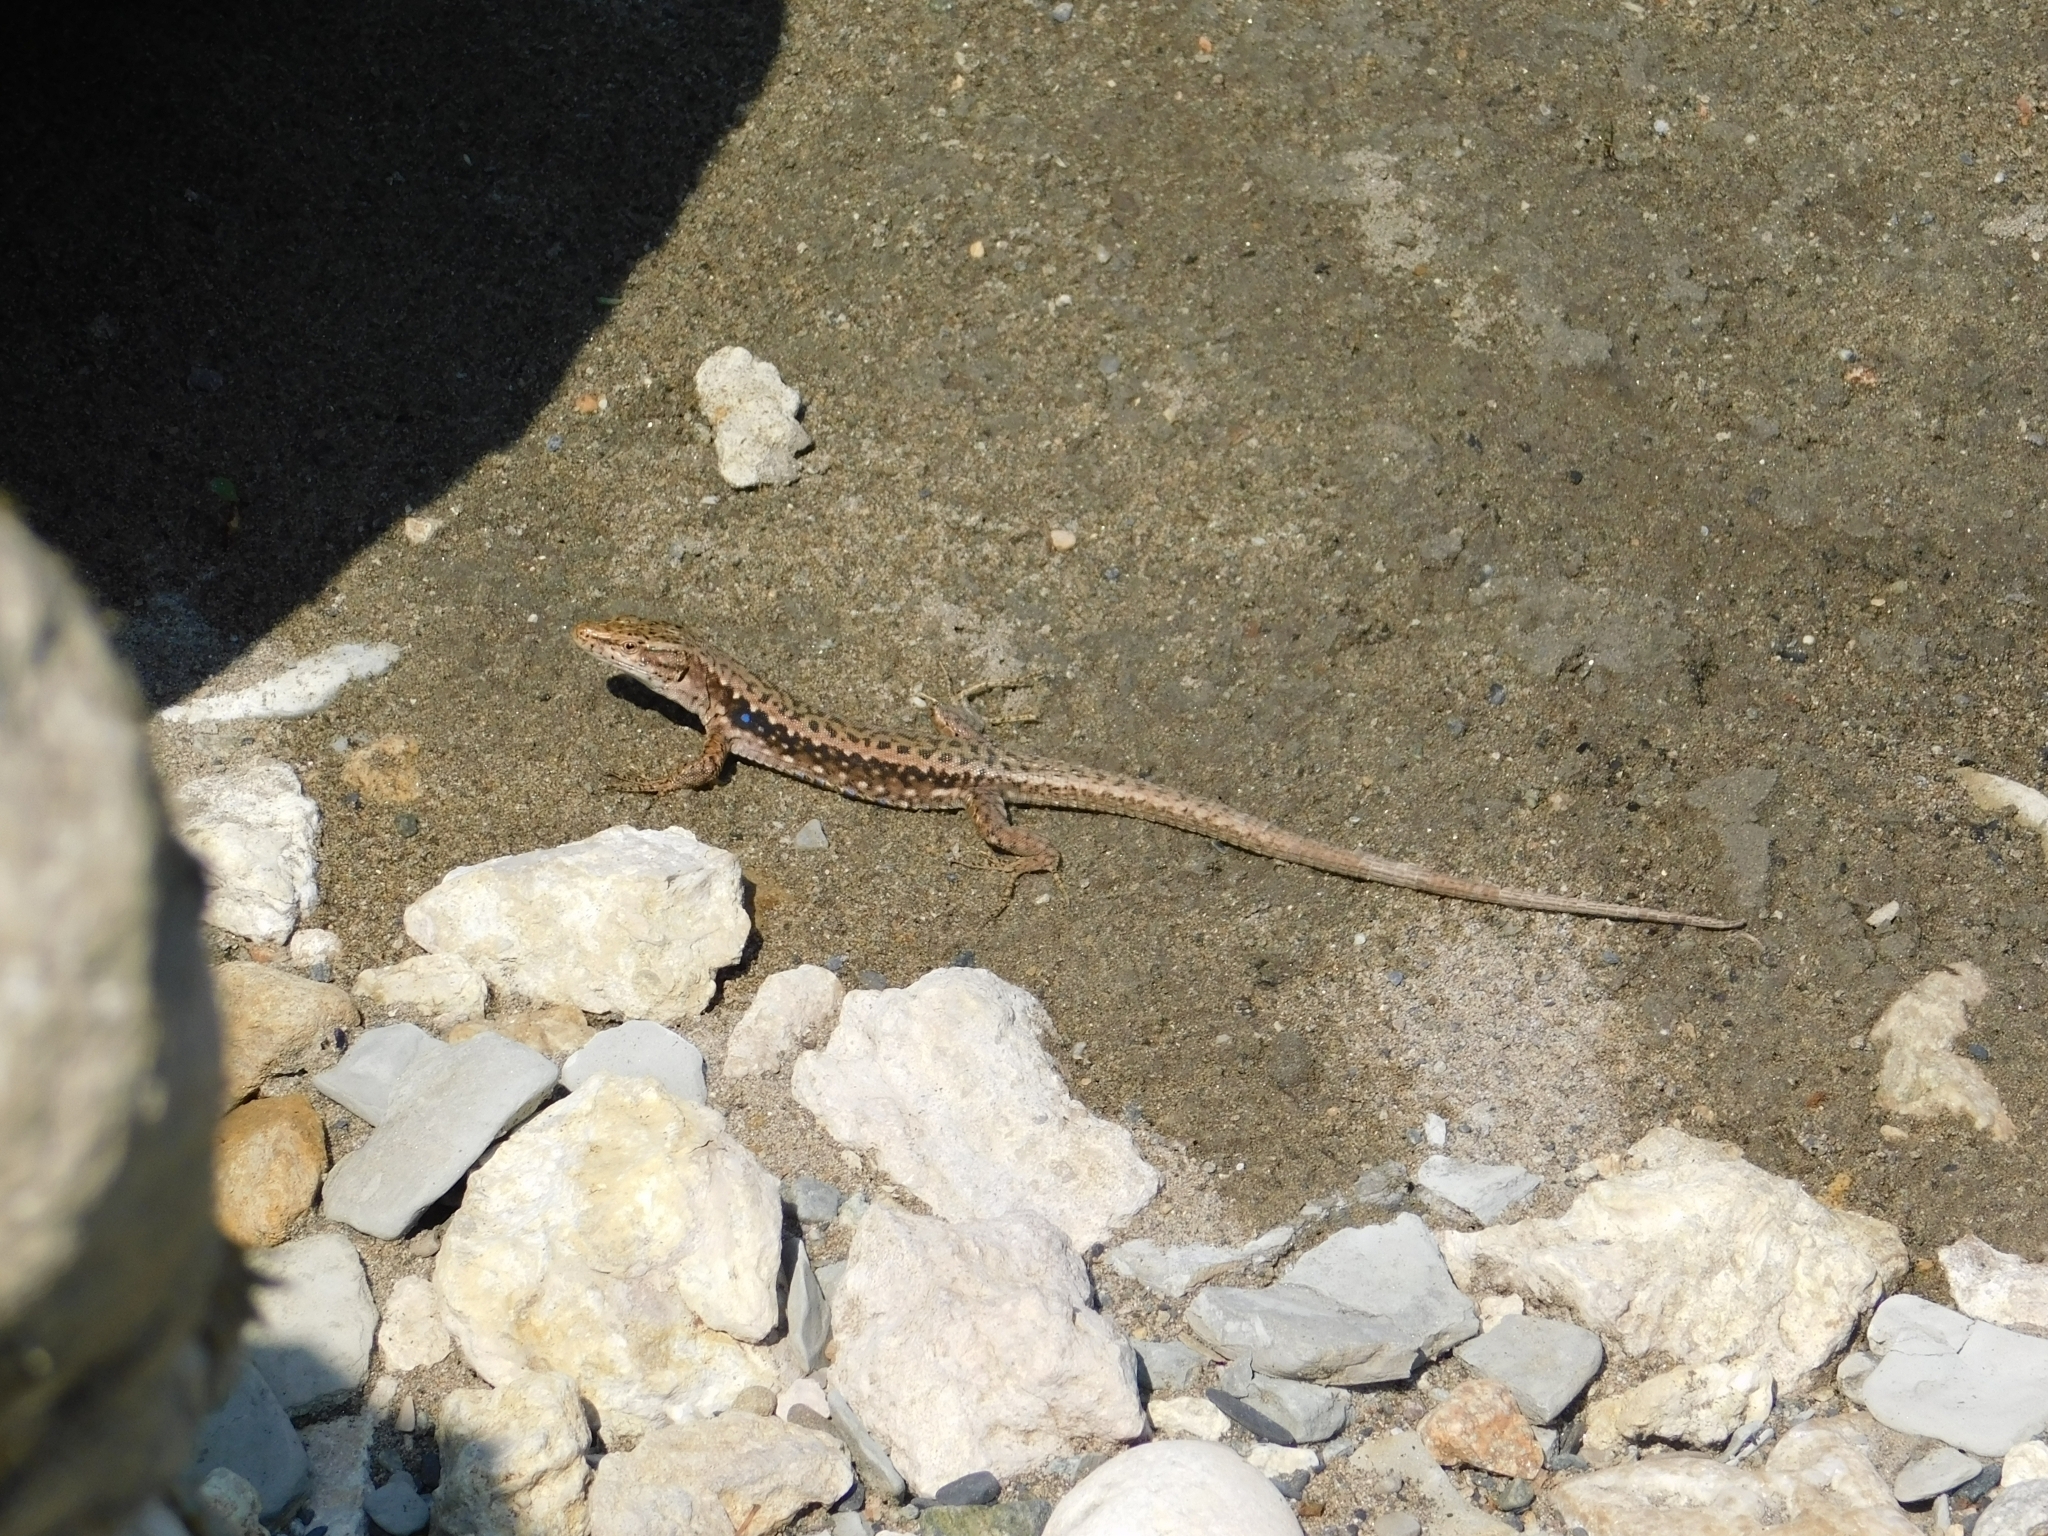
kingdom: Animalia
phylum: Chordata
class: Squamata
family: Lacertidae
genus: Darevskia
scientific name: Darevskia brauneri
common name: Brauner's rock lizard
